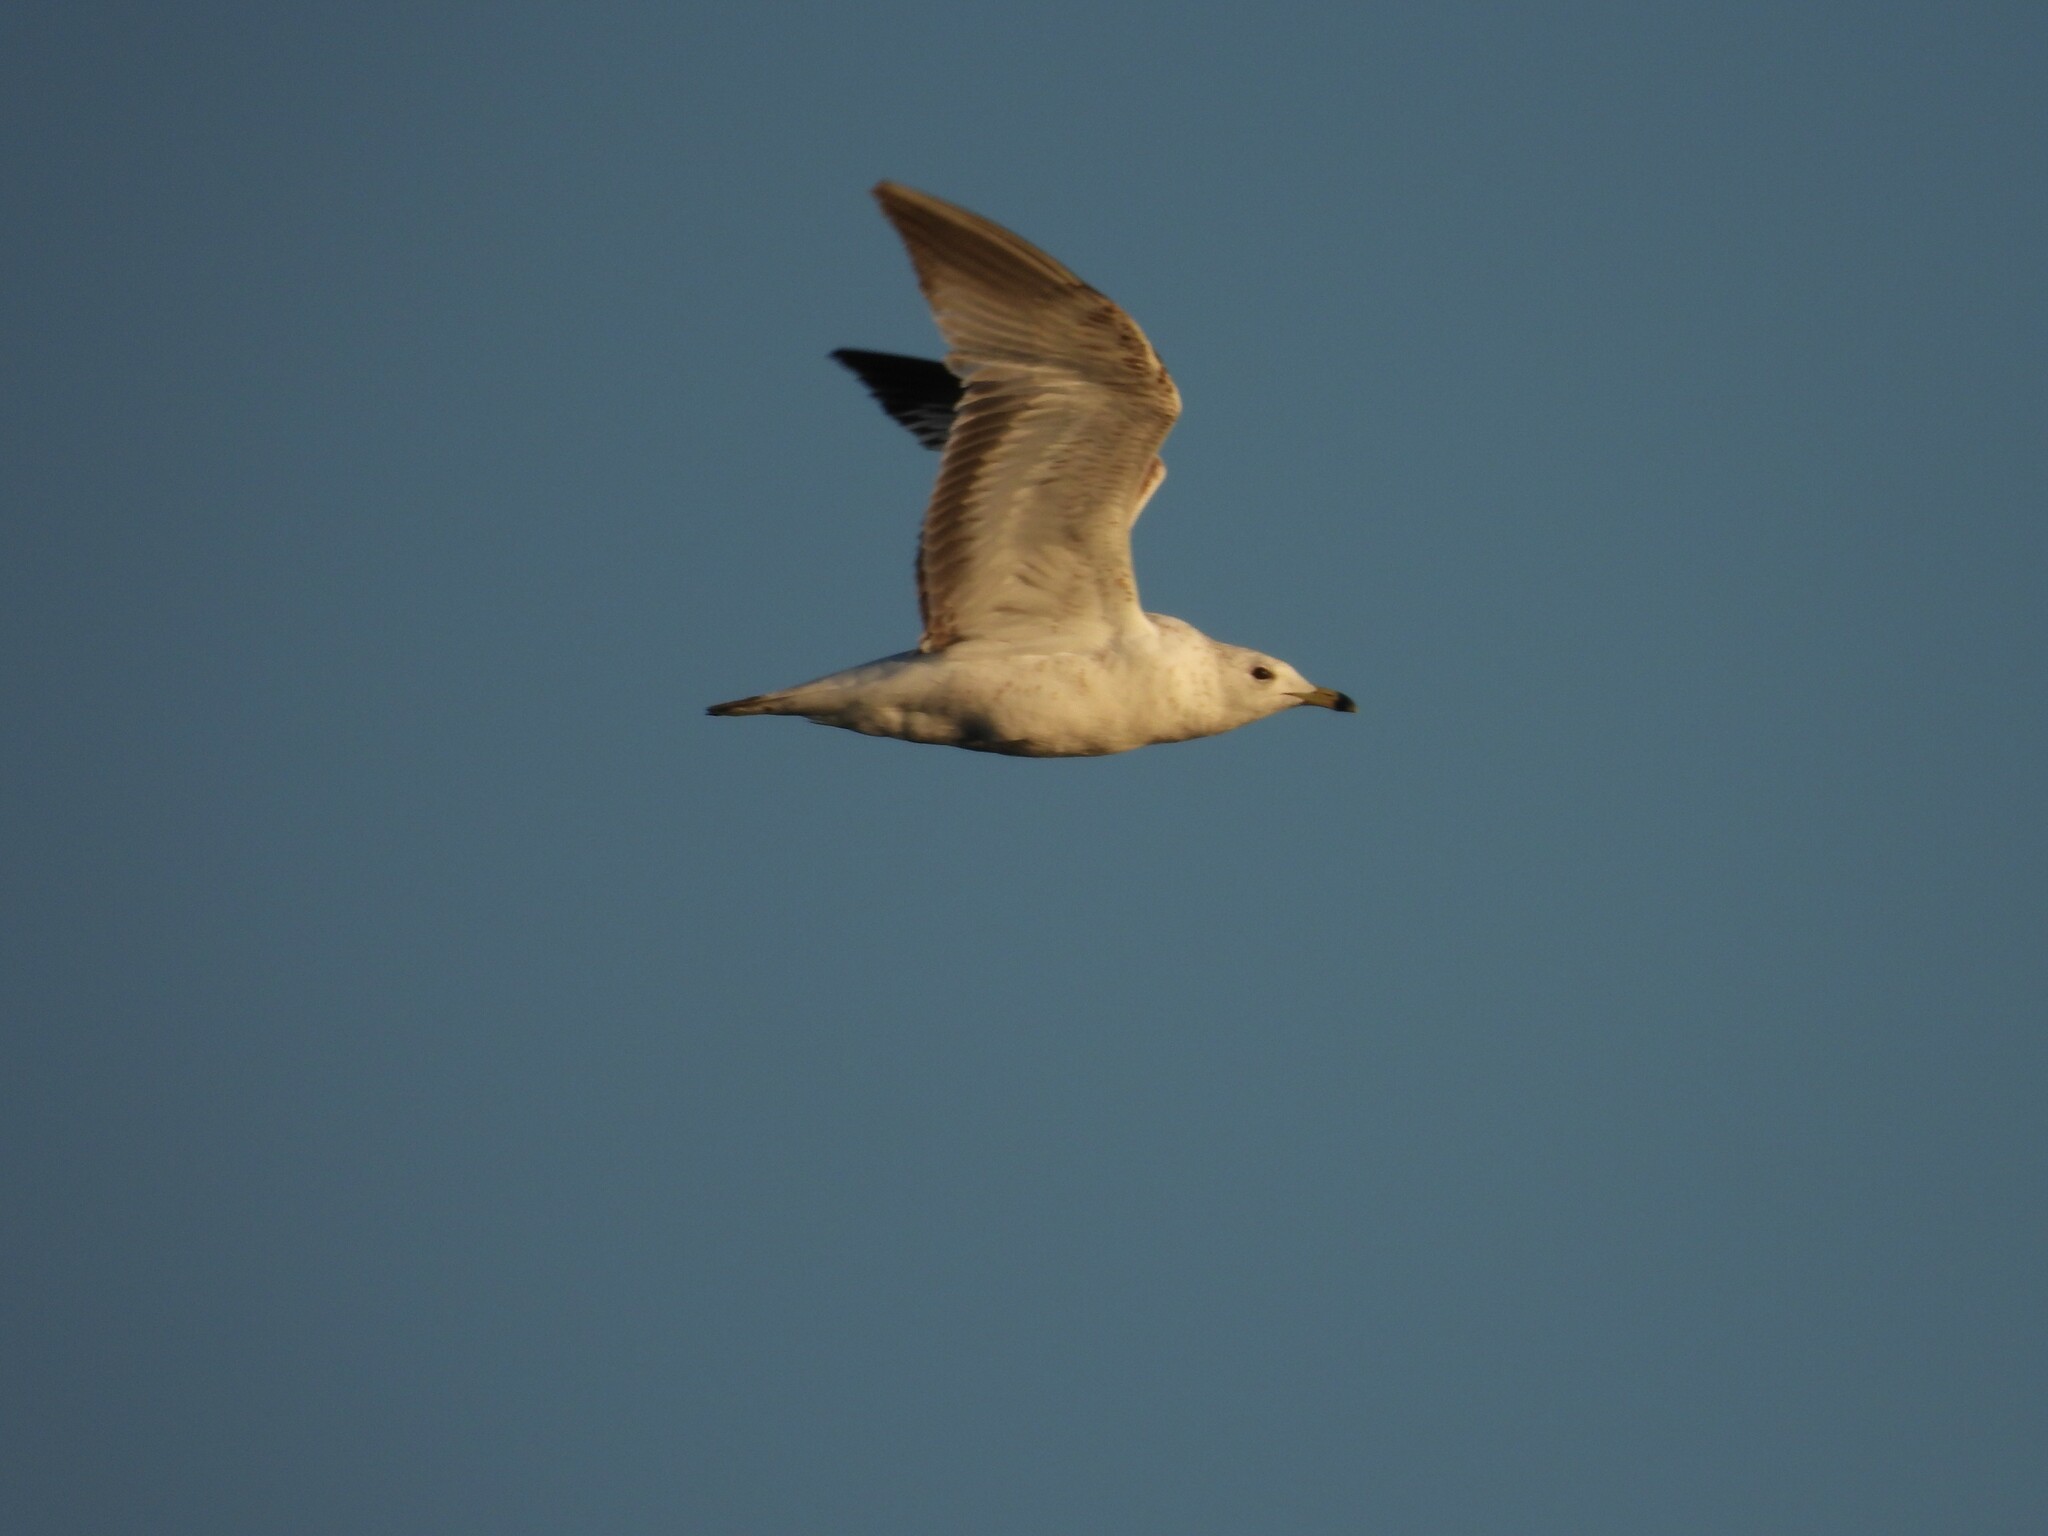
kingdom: Animalia
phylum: Chordata
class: Aves
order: Charadriiformes
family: Laridae
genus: Larus
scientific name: Larus delawarensis
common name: Ring-billed gull
